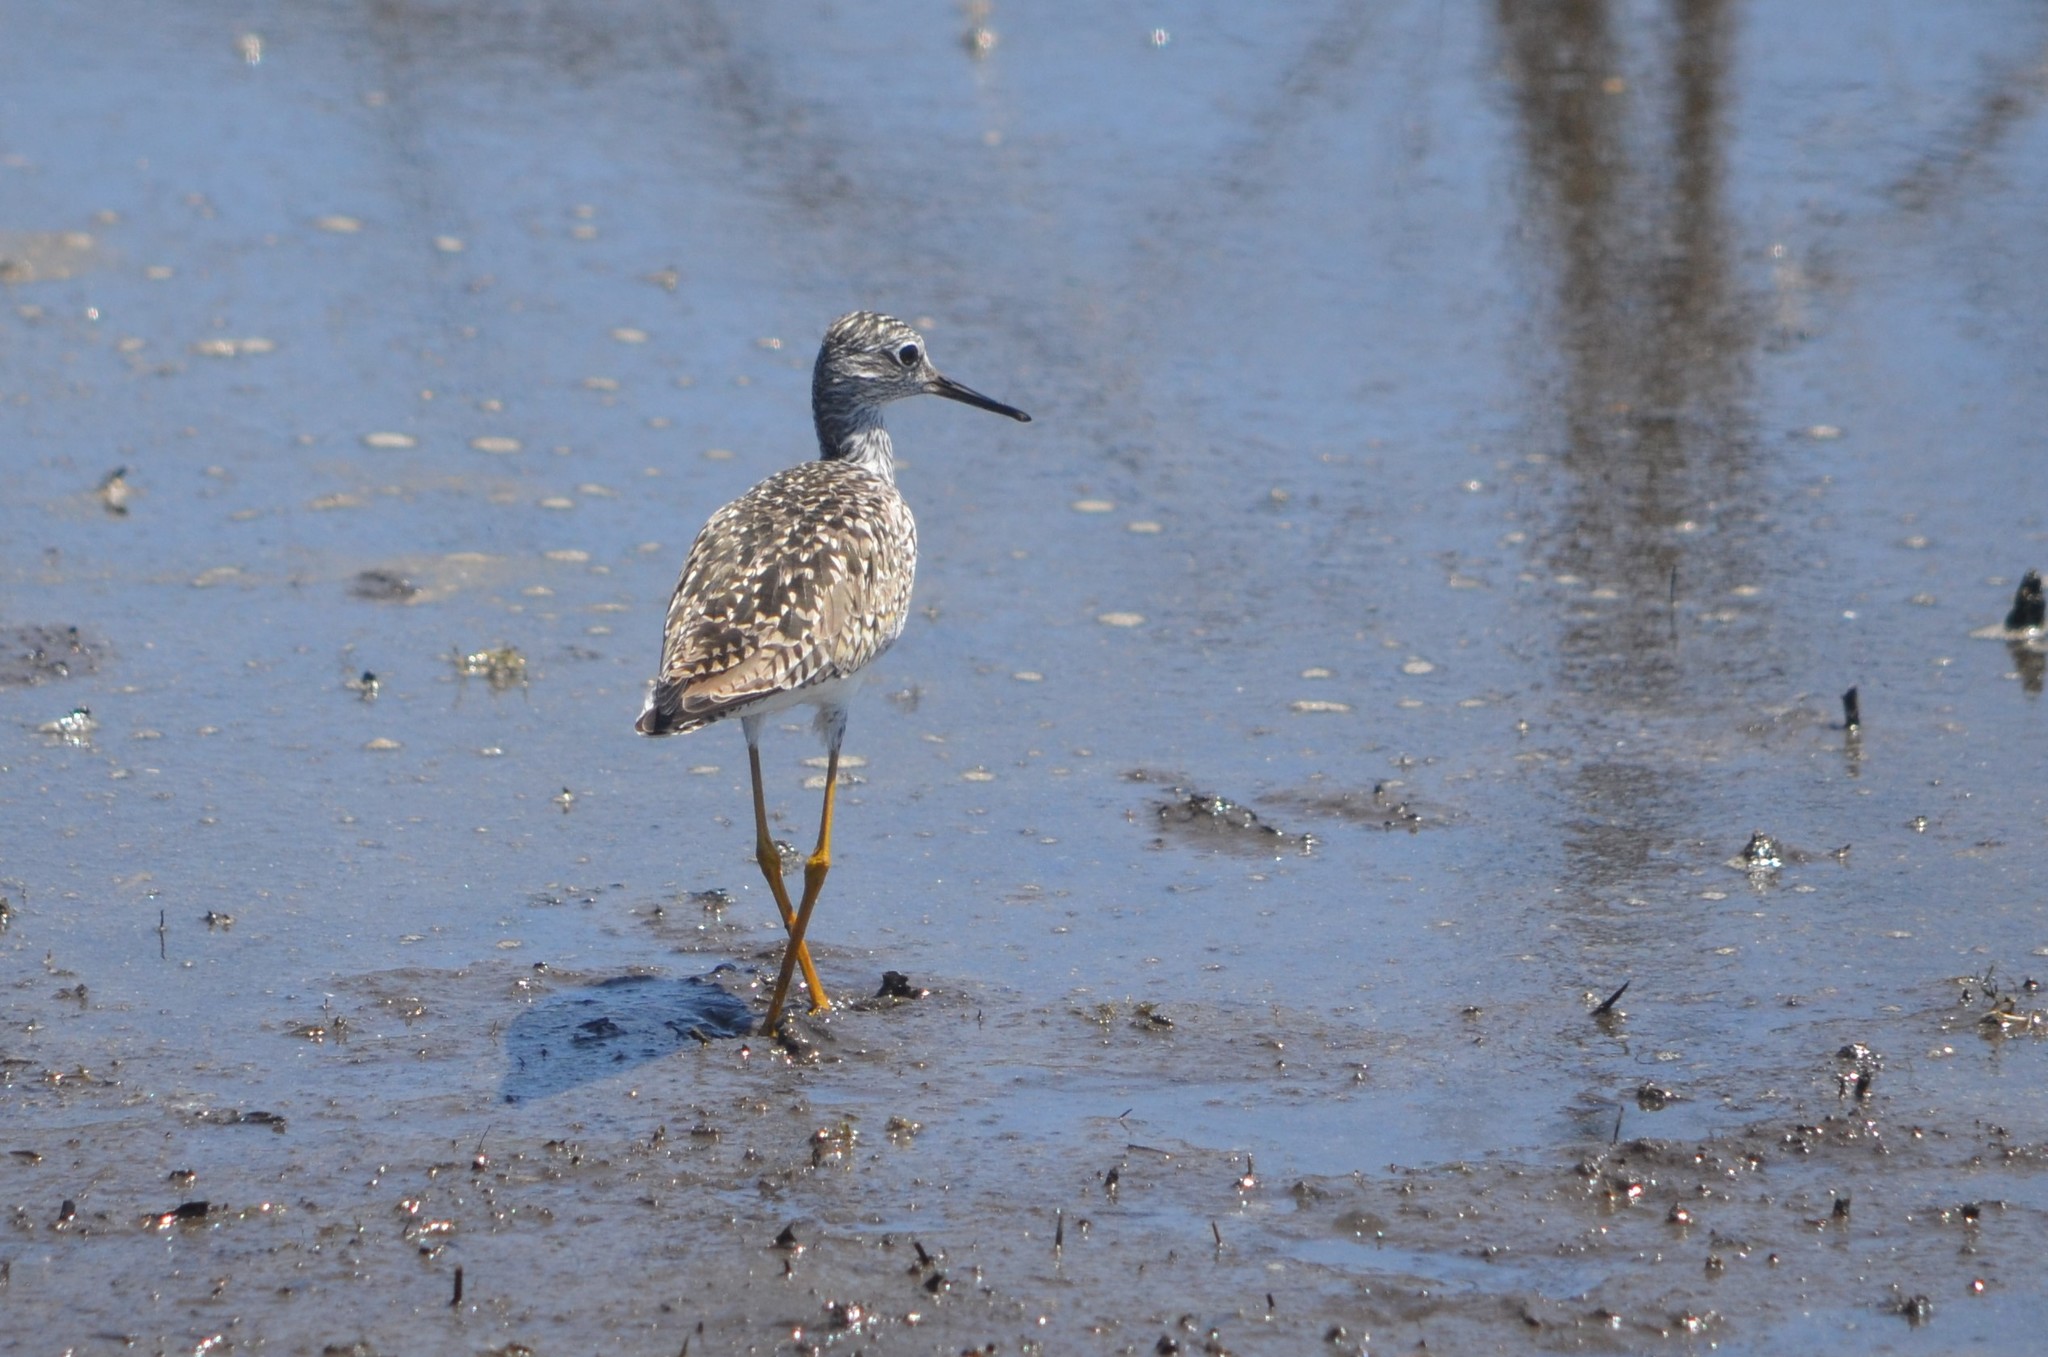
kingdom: Animalia
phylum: Chordata
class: Aves
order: Charadriiformes
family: Scolopacidae
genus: Tringa
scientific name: Tringa flavipes
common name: Lesser yellowlegs
